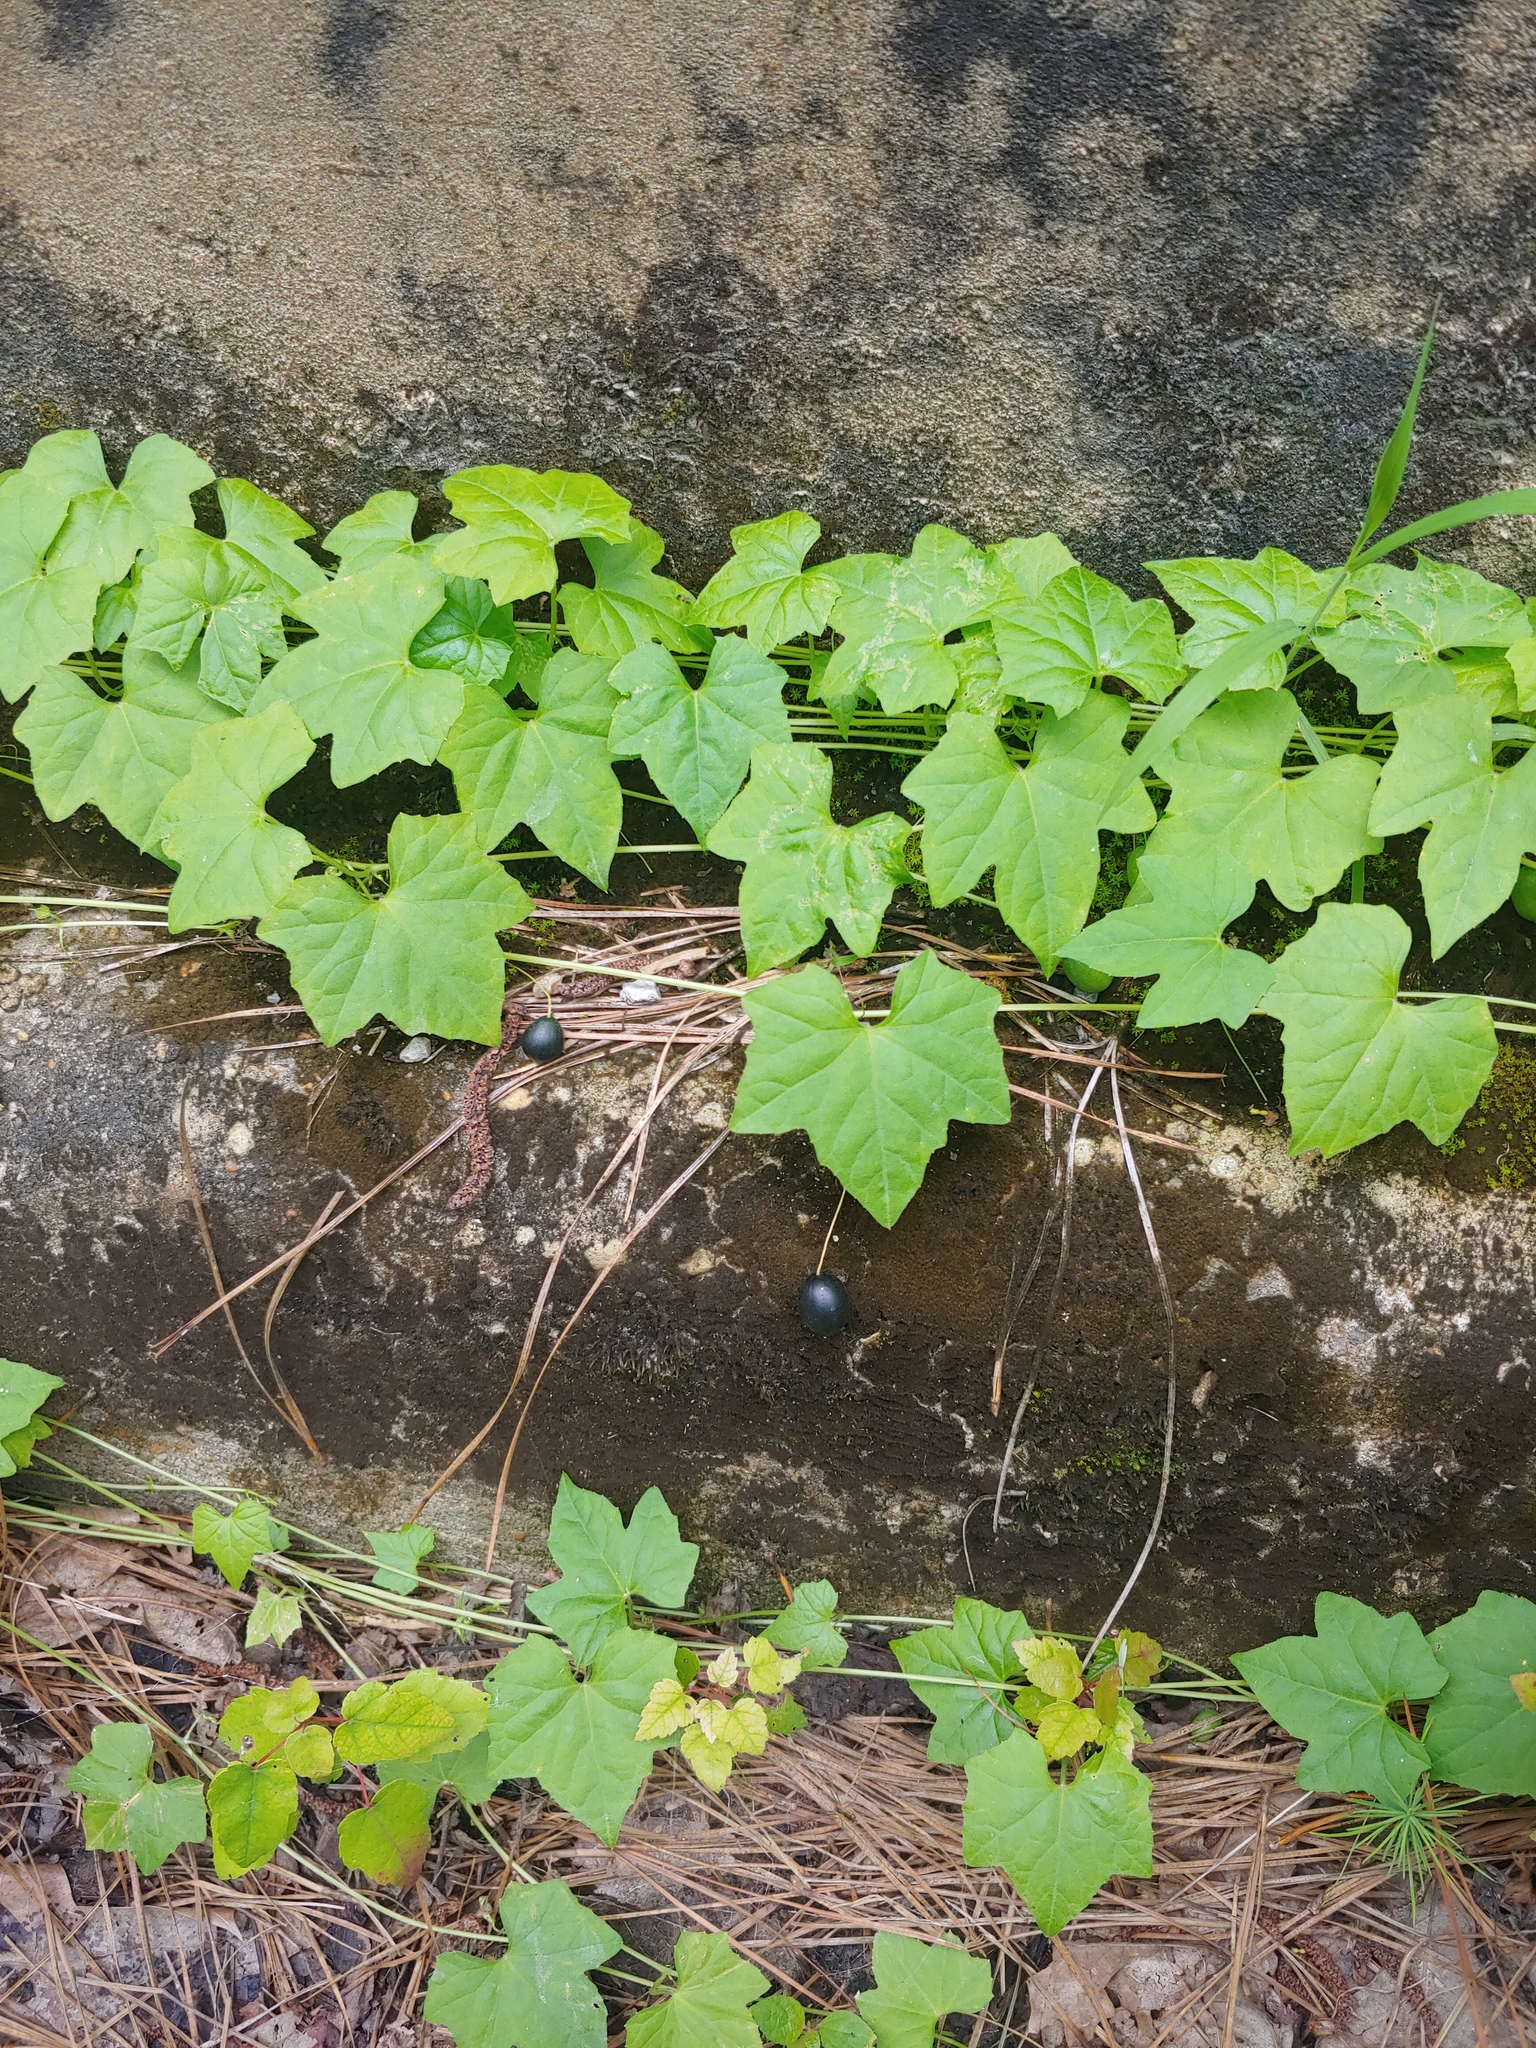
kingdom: Plantae
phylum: Tracheophyta
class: Magnoliopsida
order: Cucurbitales
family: Cucurbitaceae
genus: Melothria
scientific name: Melothria pendula
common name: Creeping-cucumber
